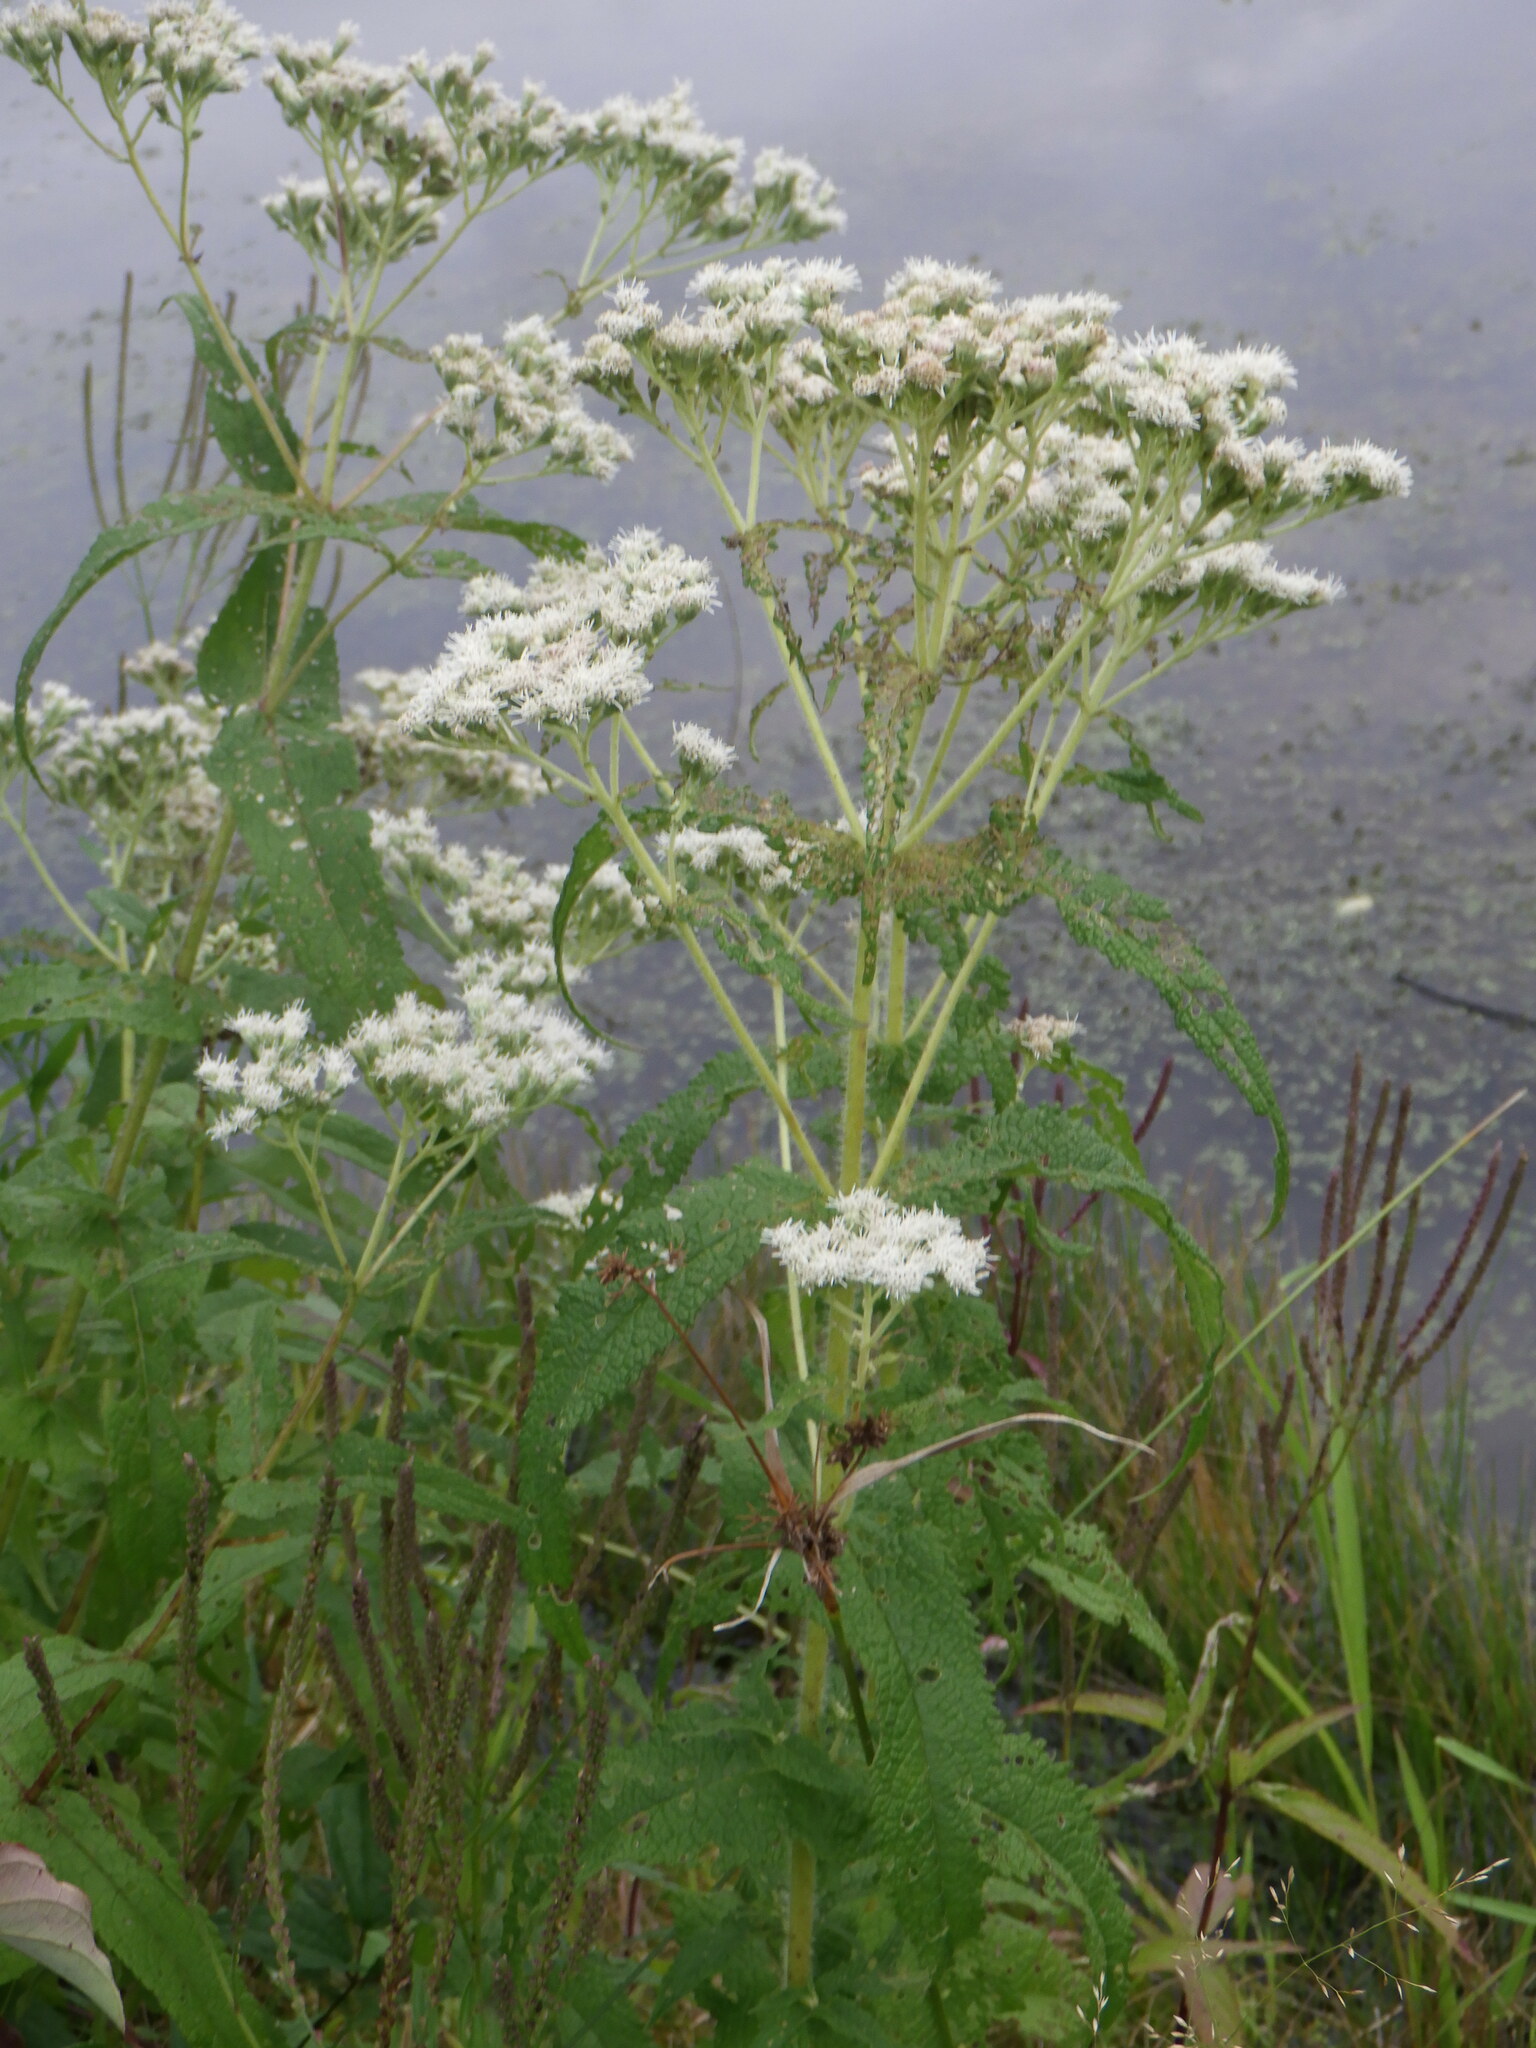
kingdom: Plantae
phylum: Tracheophyta
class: Magnoliopsida
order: Asterales
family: Asteraceae
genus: Eupatorium
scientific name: Eupatorium perfoliatum
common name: Boneset
